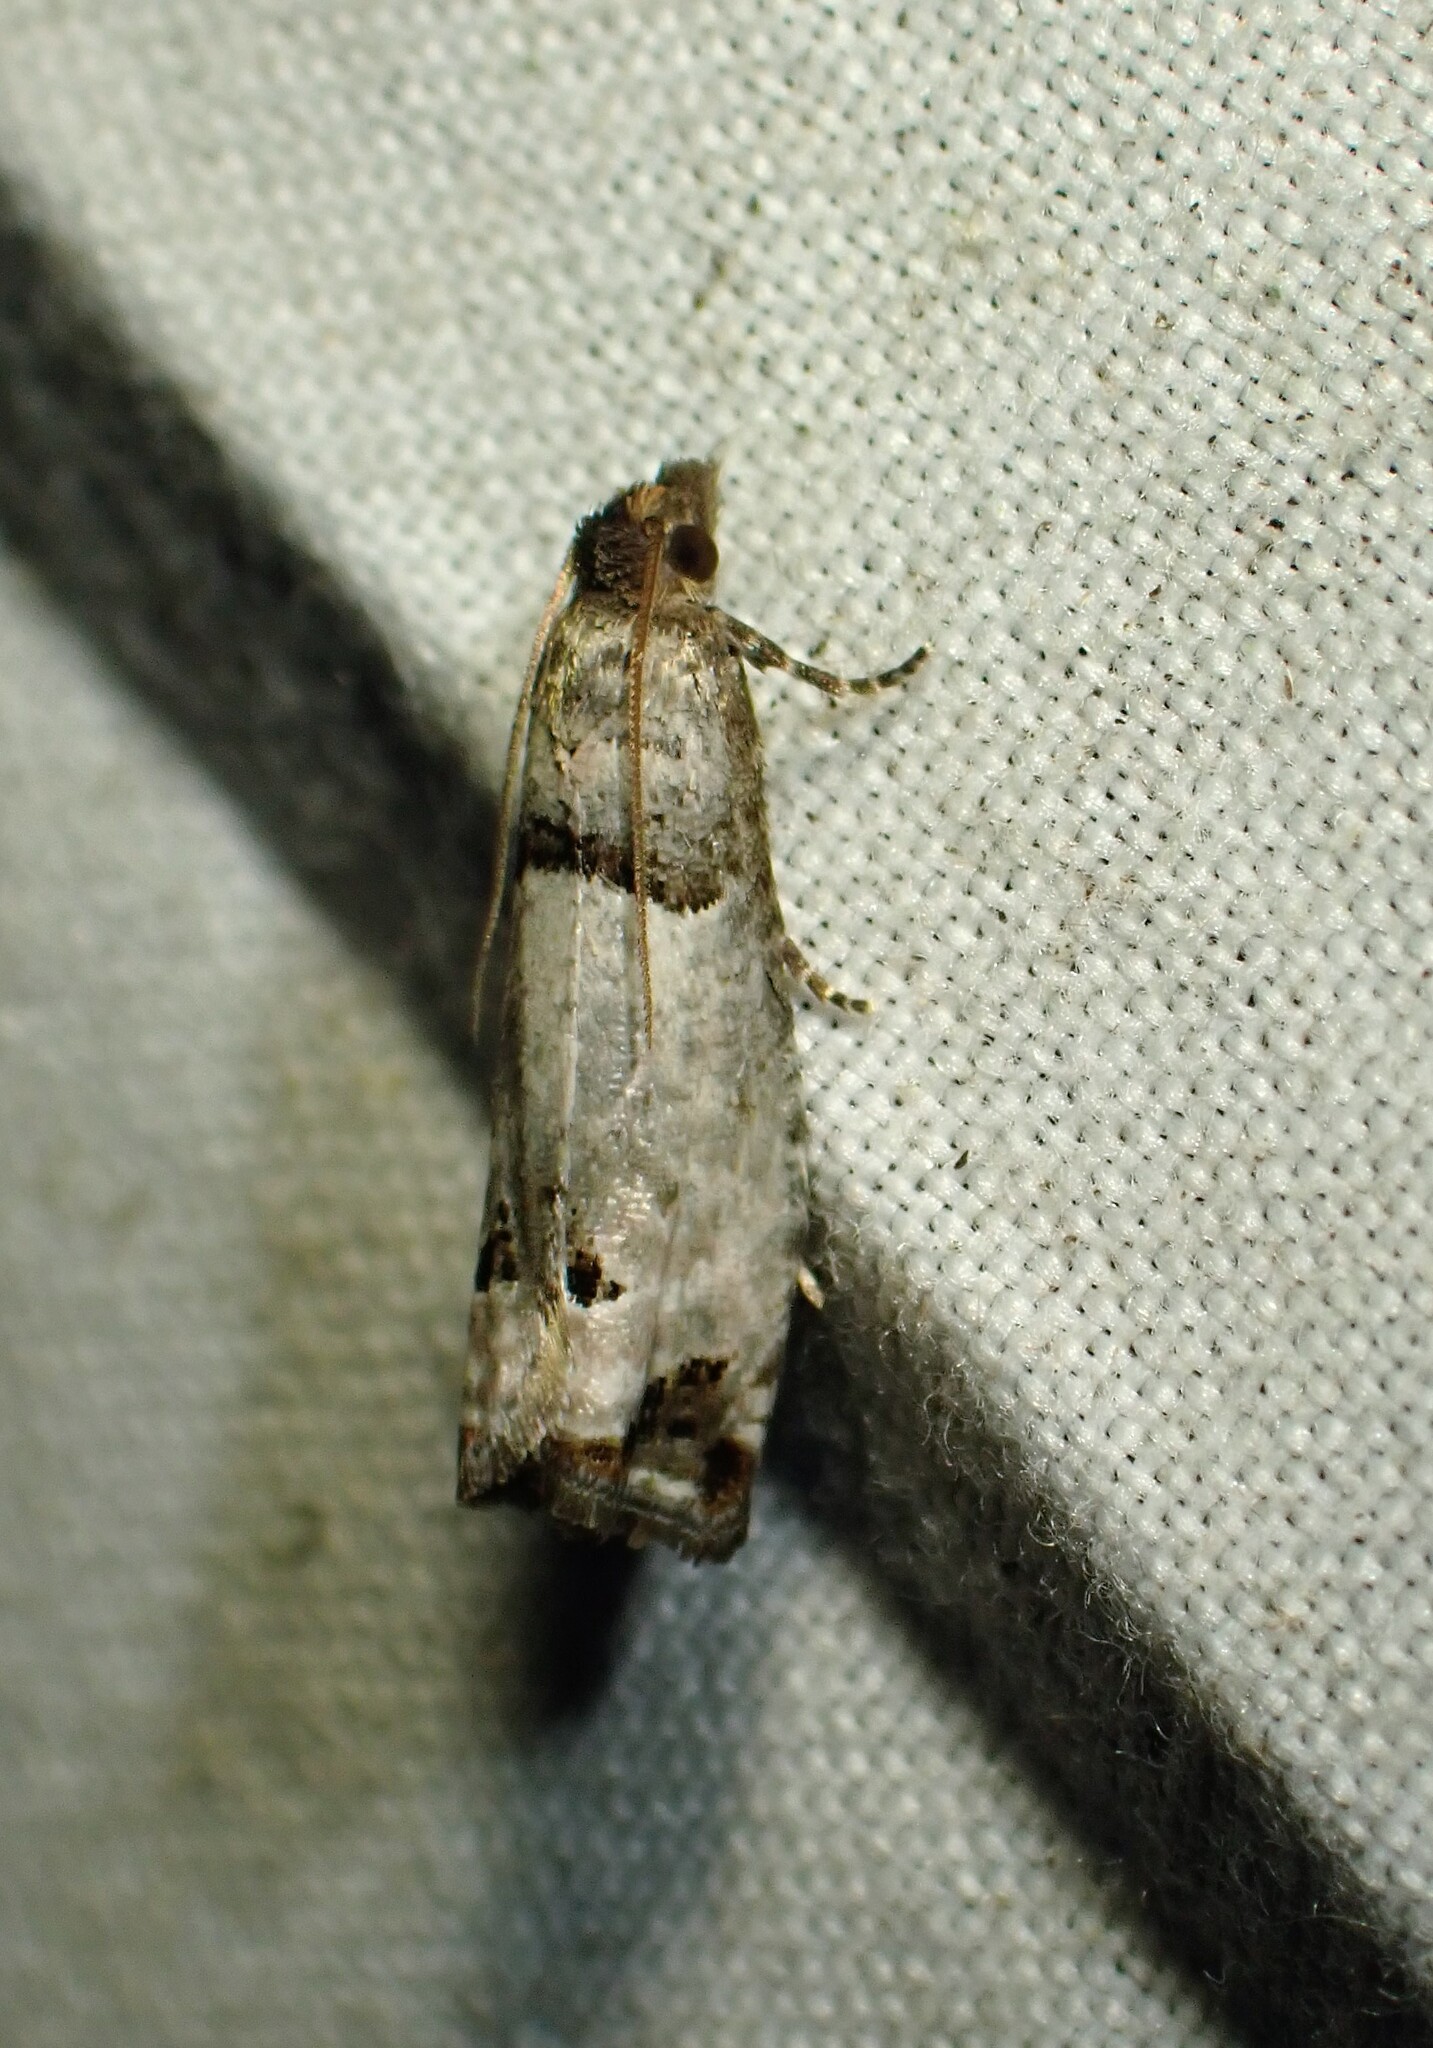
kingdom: Animalia
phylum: Arthropoda
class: Insecta
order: Lepidoptera
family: Tortricidae
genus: Notocelia
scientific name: Notocelia culminana
